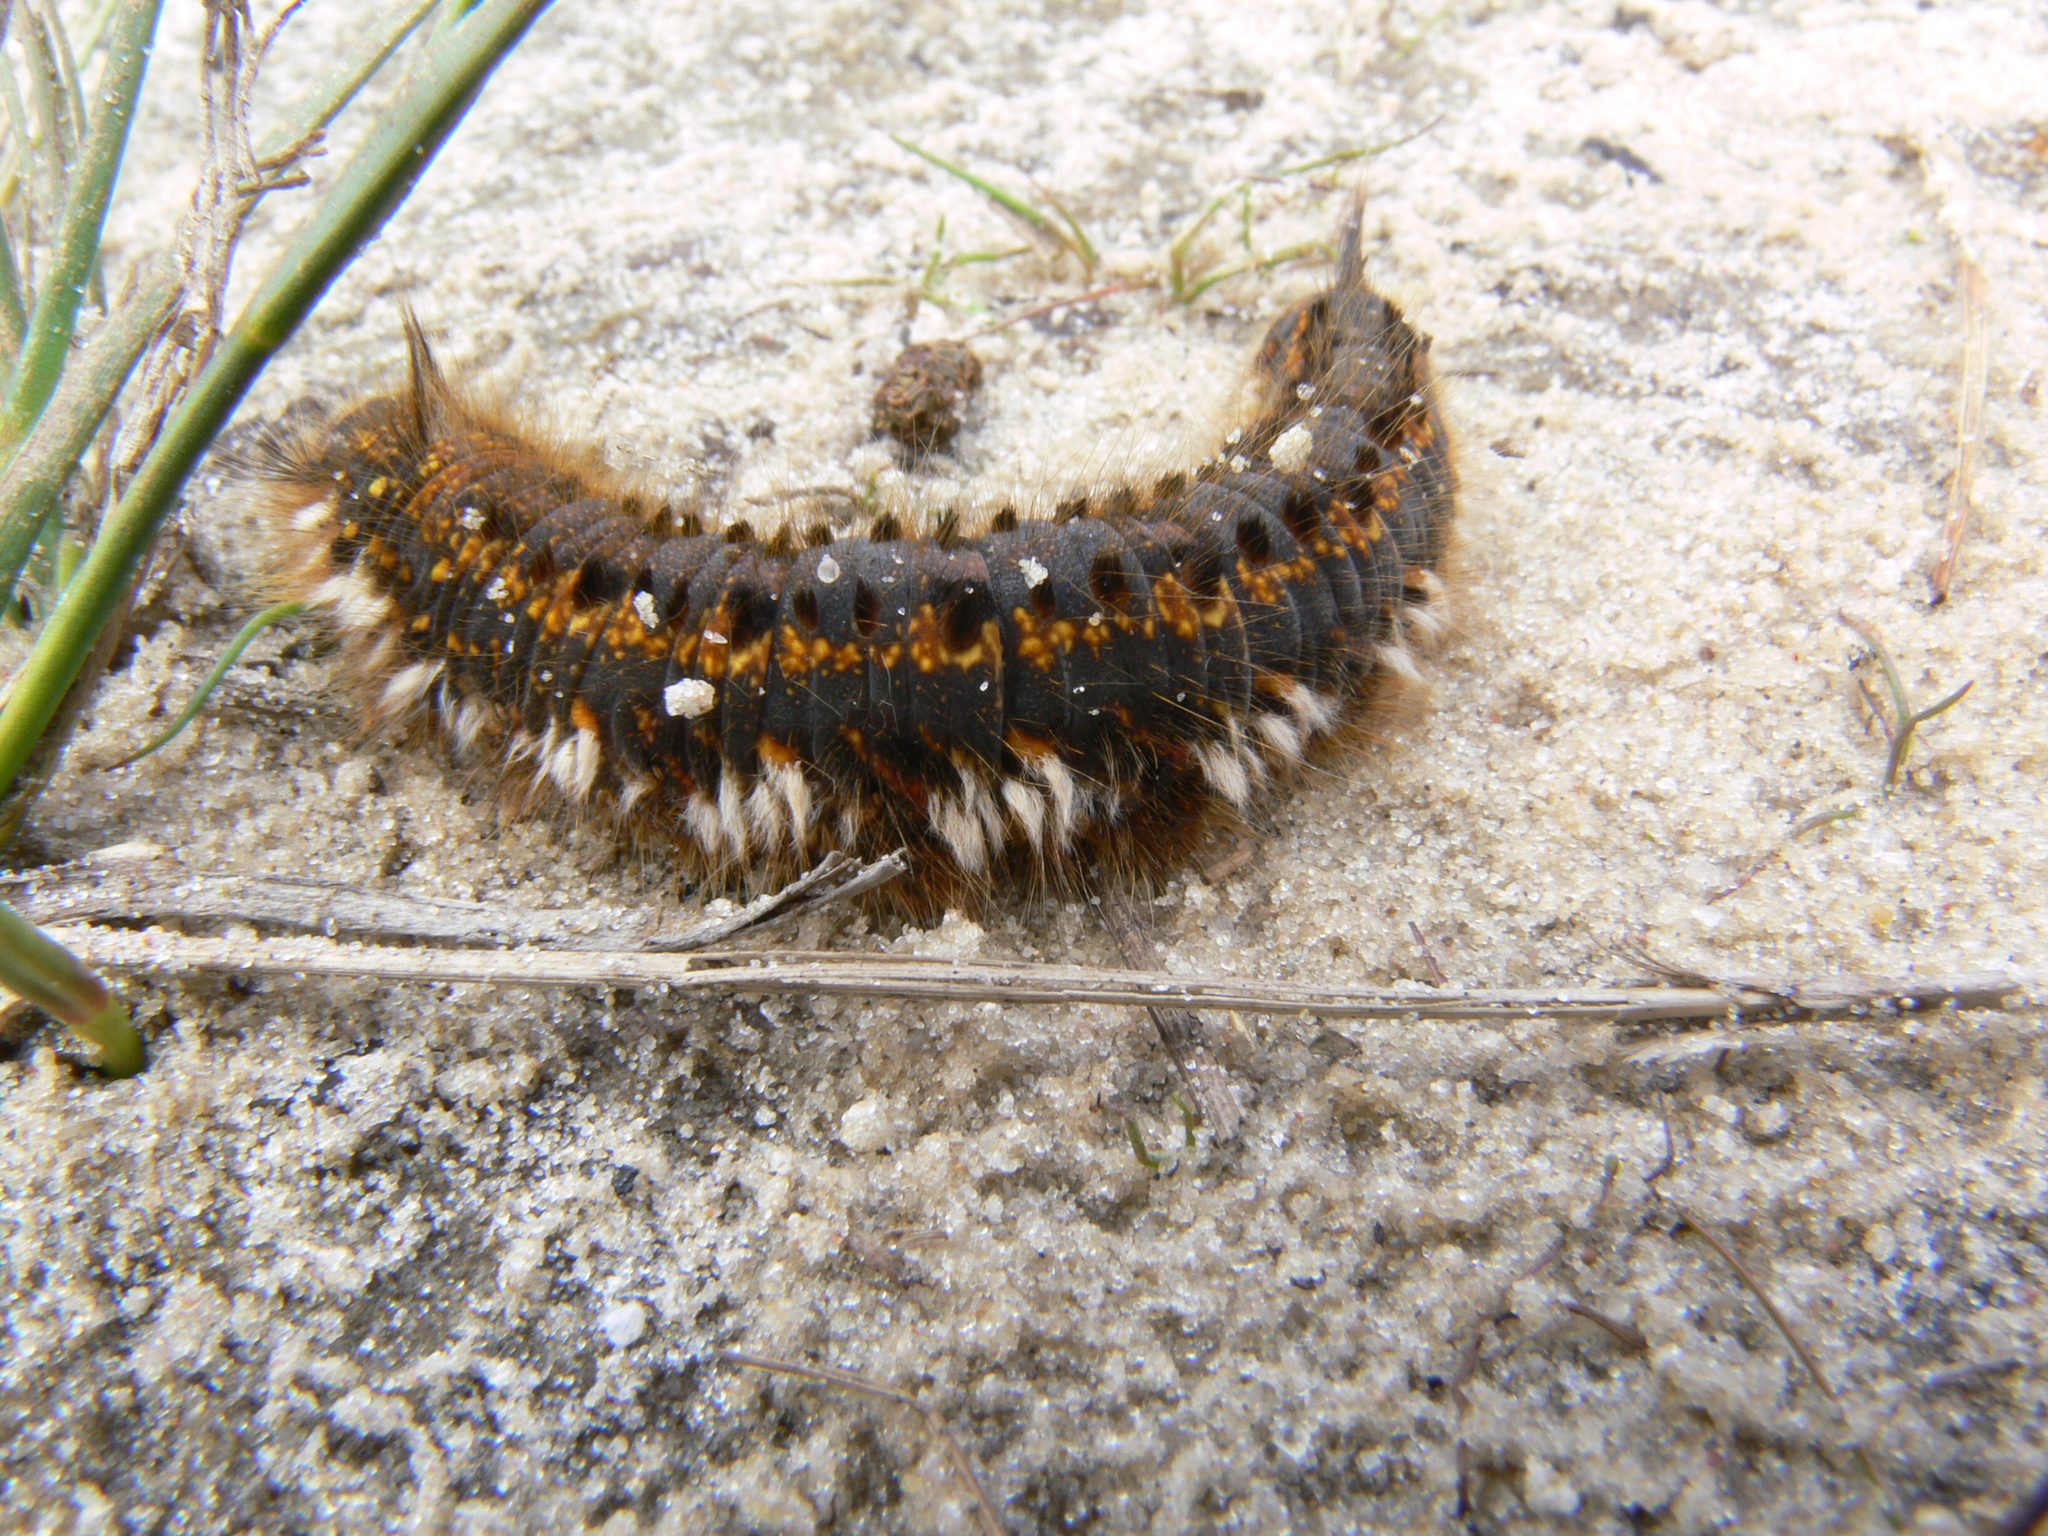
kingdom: Animalia
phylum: Arthropoda
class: Insecta
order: Lepidoptera
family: Lasiocampidae
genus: Euthrix
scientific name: Euthrix potatoria
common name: Drinker
